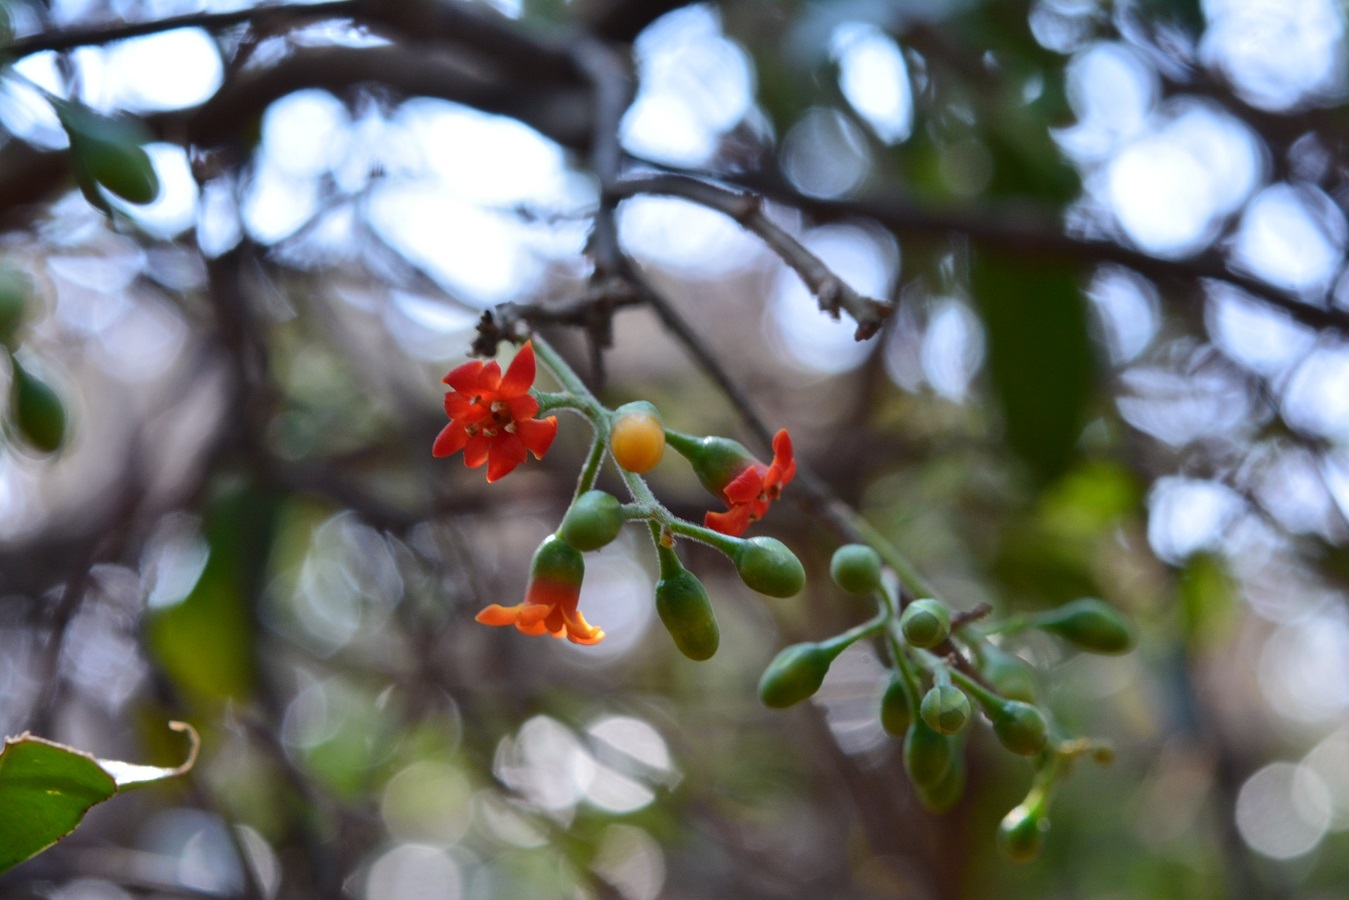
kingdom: Plantae
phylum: Tracheophyta
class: Magnoliopsida
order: Ericales
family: Primulaceae
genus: Bonellia
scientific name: Bonellia macrocarpa
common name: Primrose
